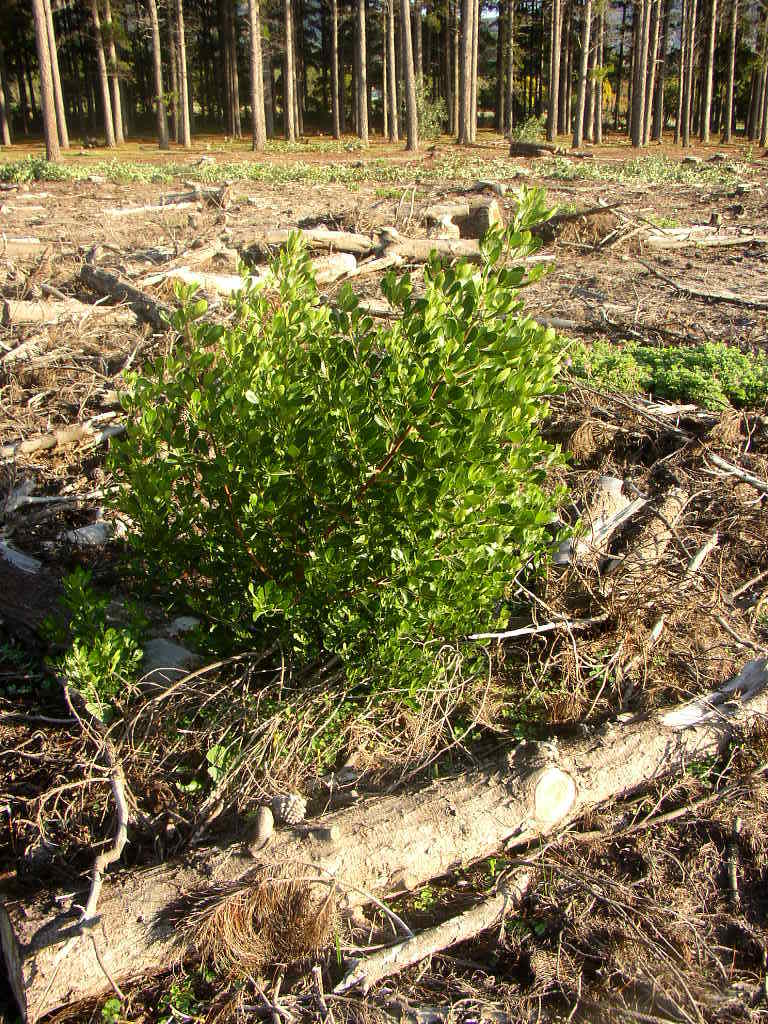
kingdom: Plantae
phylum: Tracheophyta
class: Magnoliopsida
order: Sapindales
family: Anacardiaceae
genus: Searsia
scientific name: Searsia laevigata
